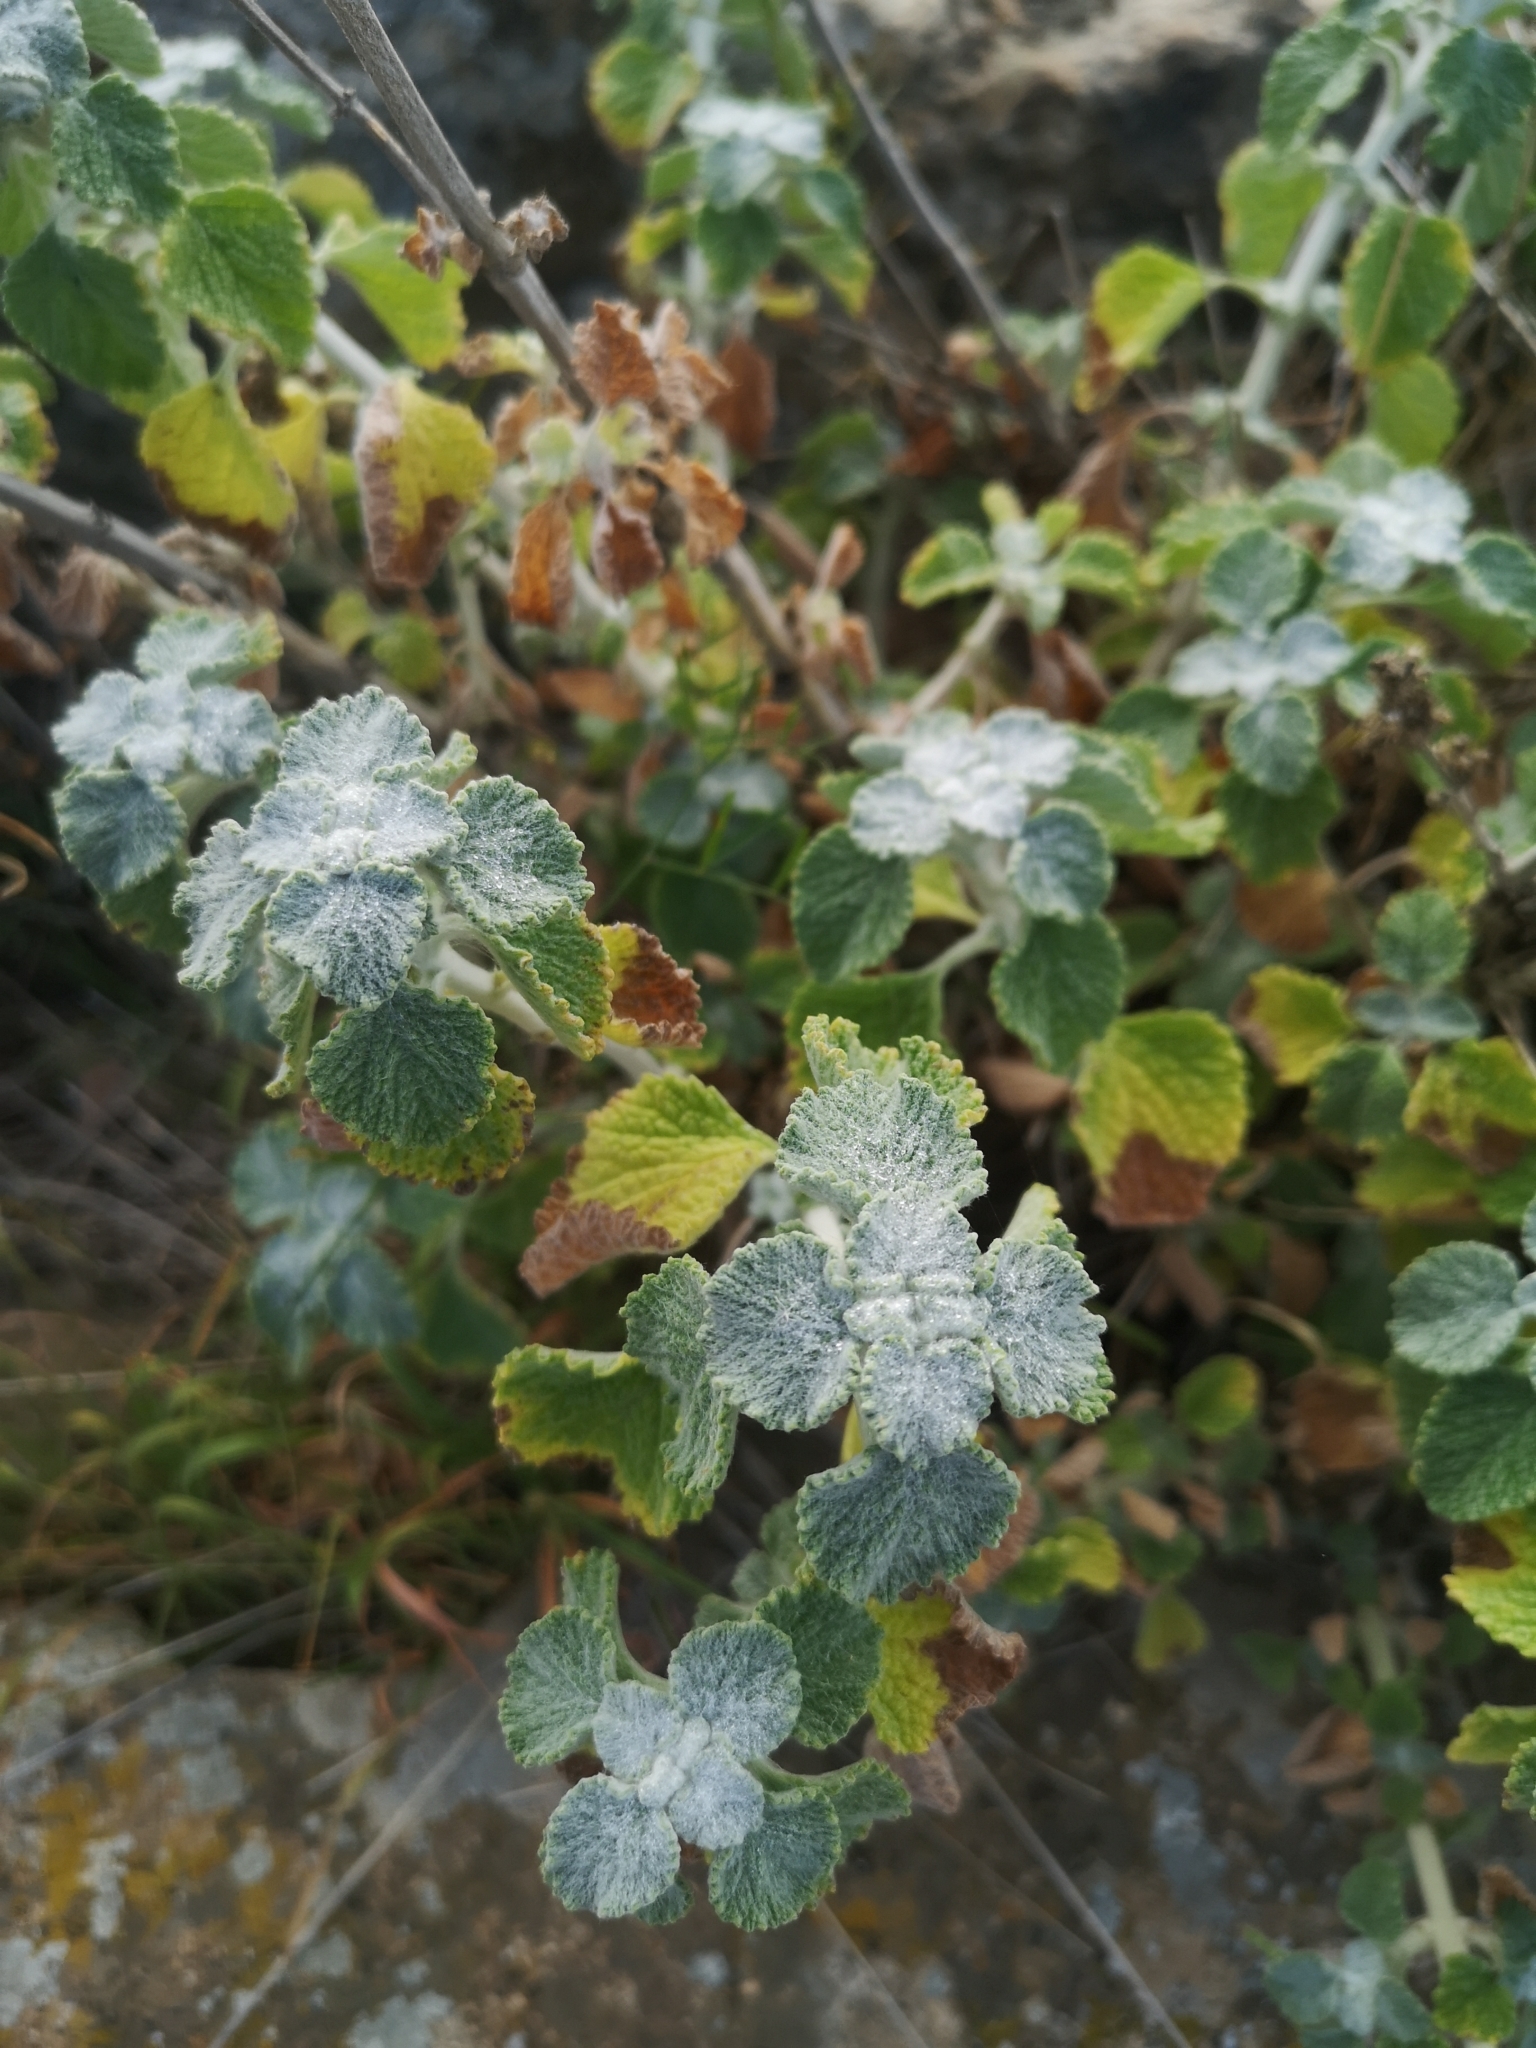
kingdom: Plantae
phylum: Tracheophyta
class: Magnoliopsida
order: Lamiales
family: Lamiaceae
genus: Marrubium
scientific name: Marrubium vulgare
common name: Horehound
